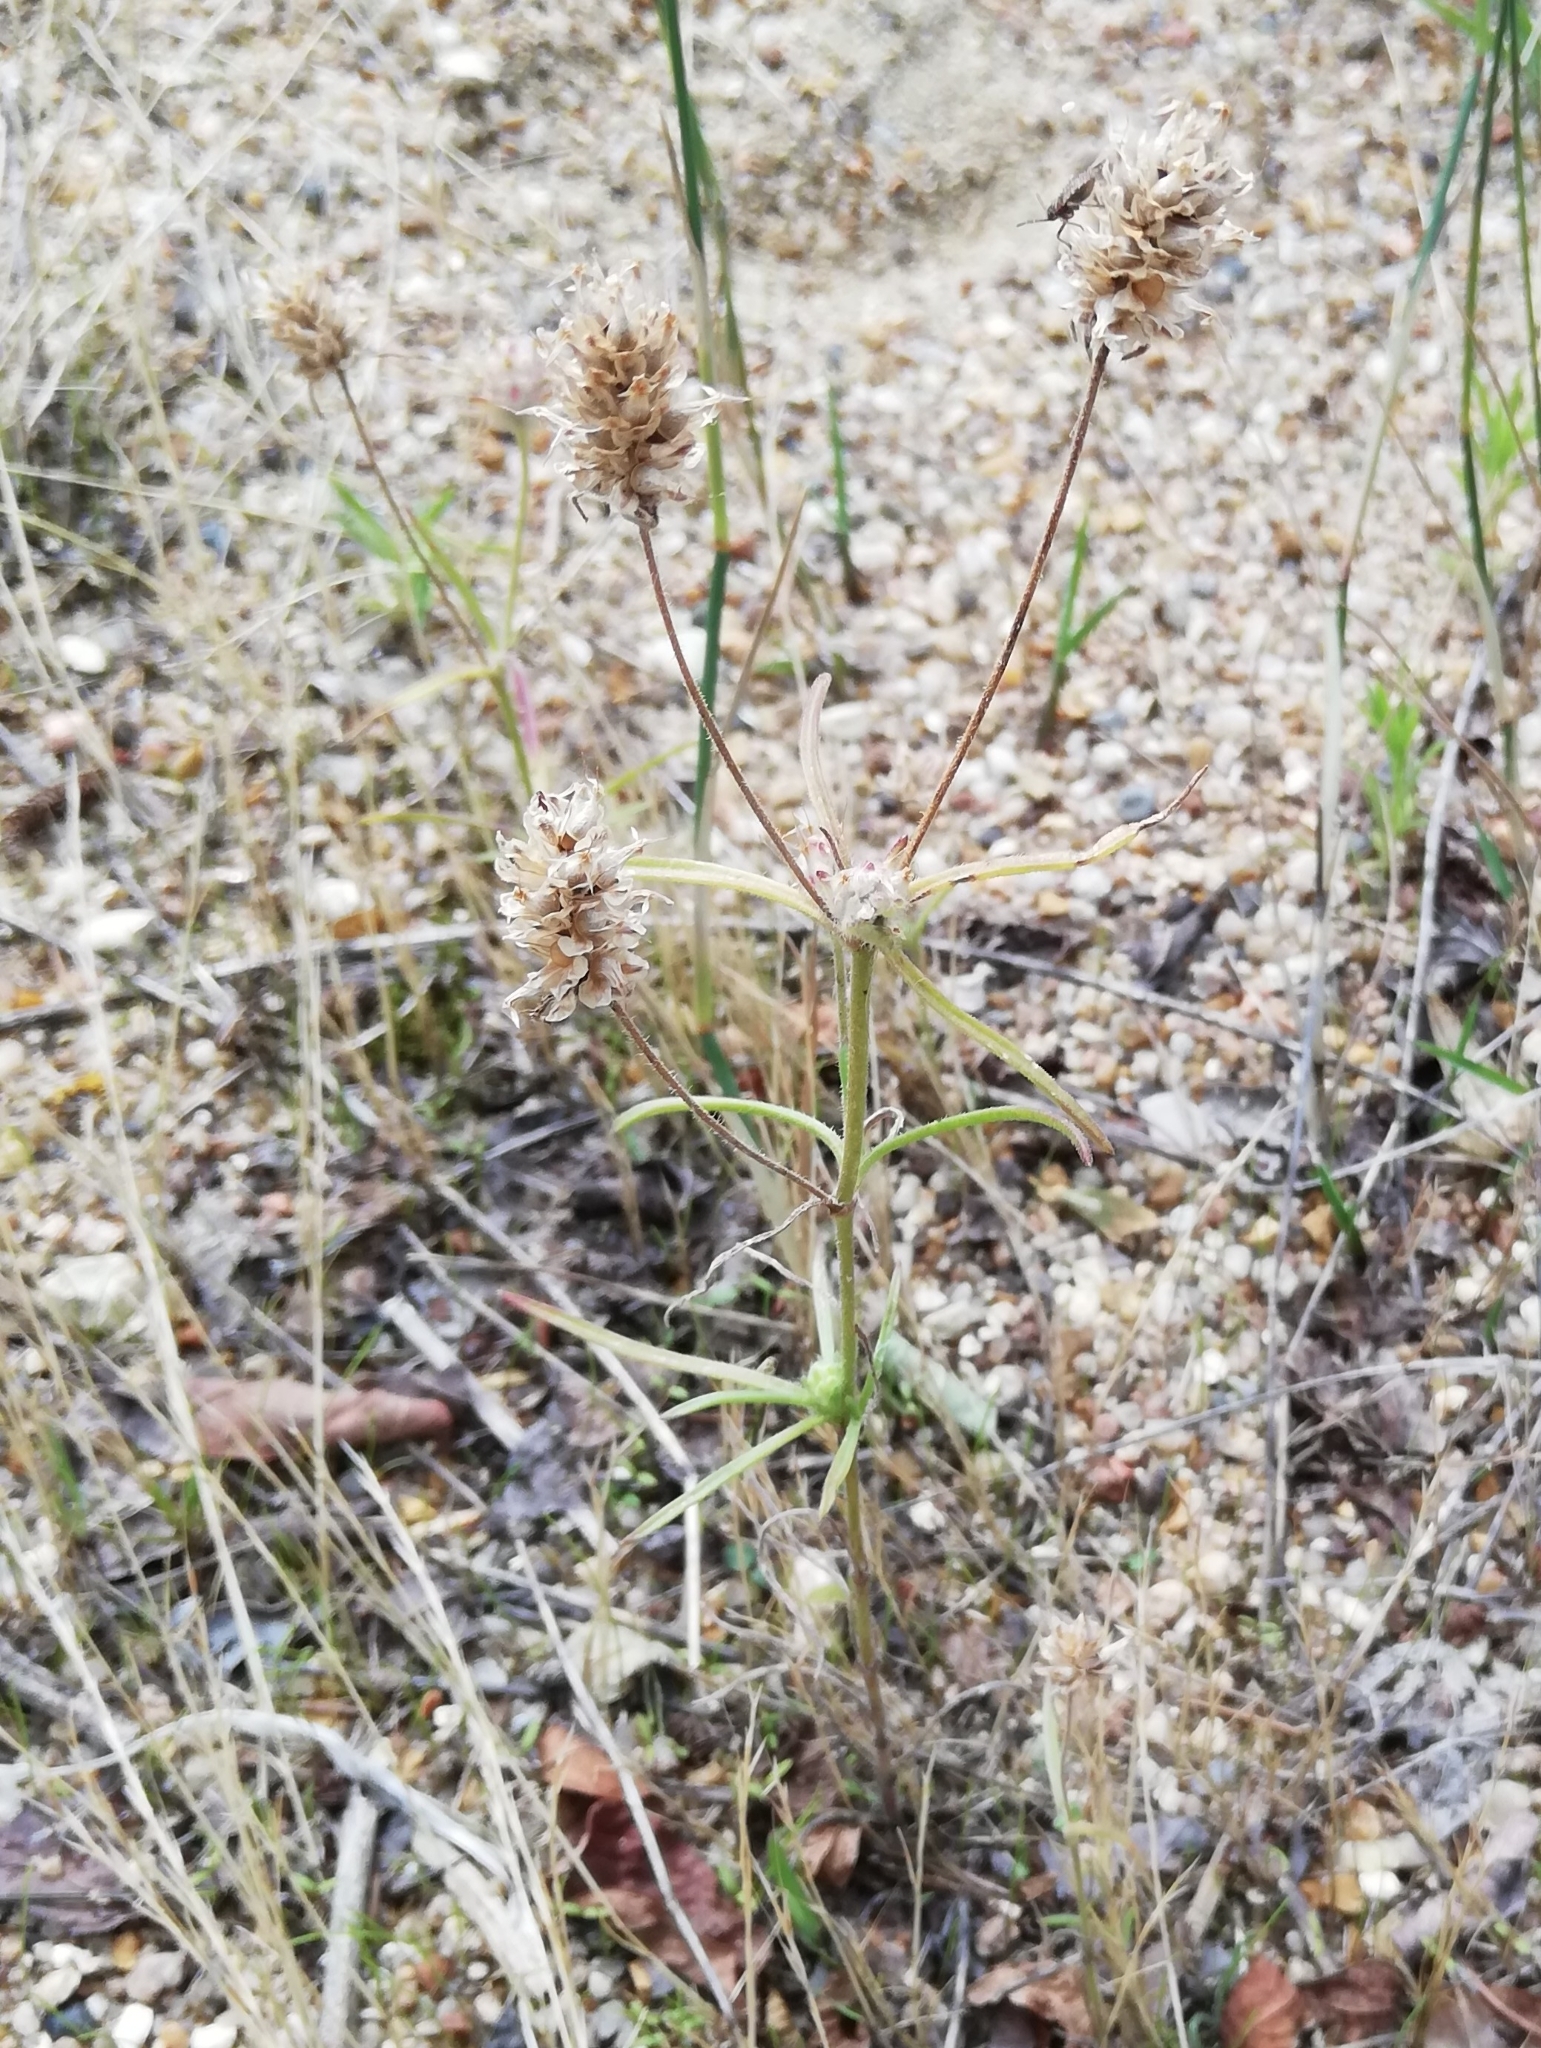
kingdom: Plantae
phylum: Tracheophyta
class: Magnoliopsida
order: Lamiales
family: Plantaginaceae
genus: Plantago
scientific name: Plantago arenaria
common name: Branched plantain
